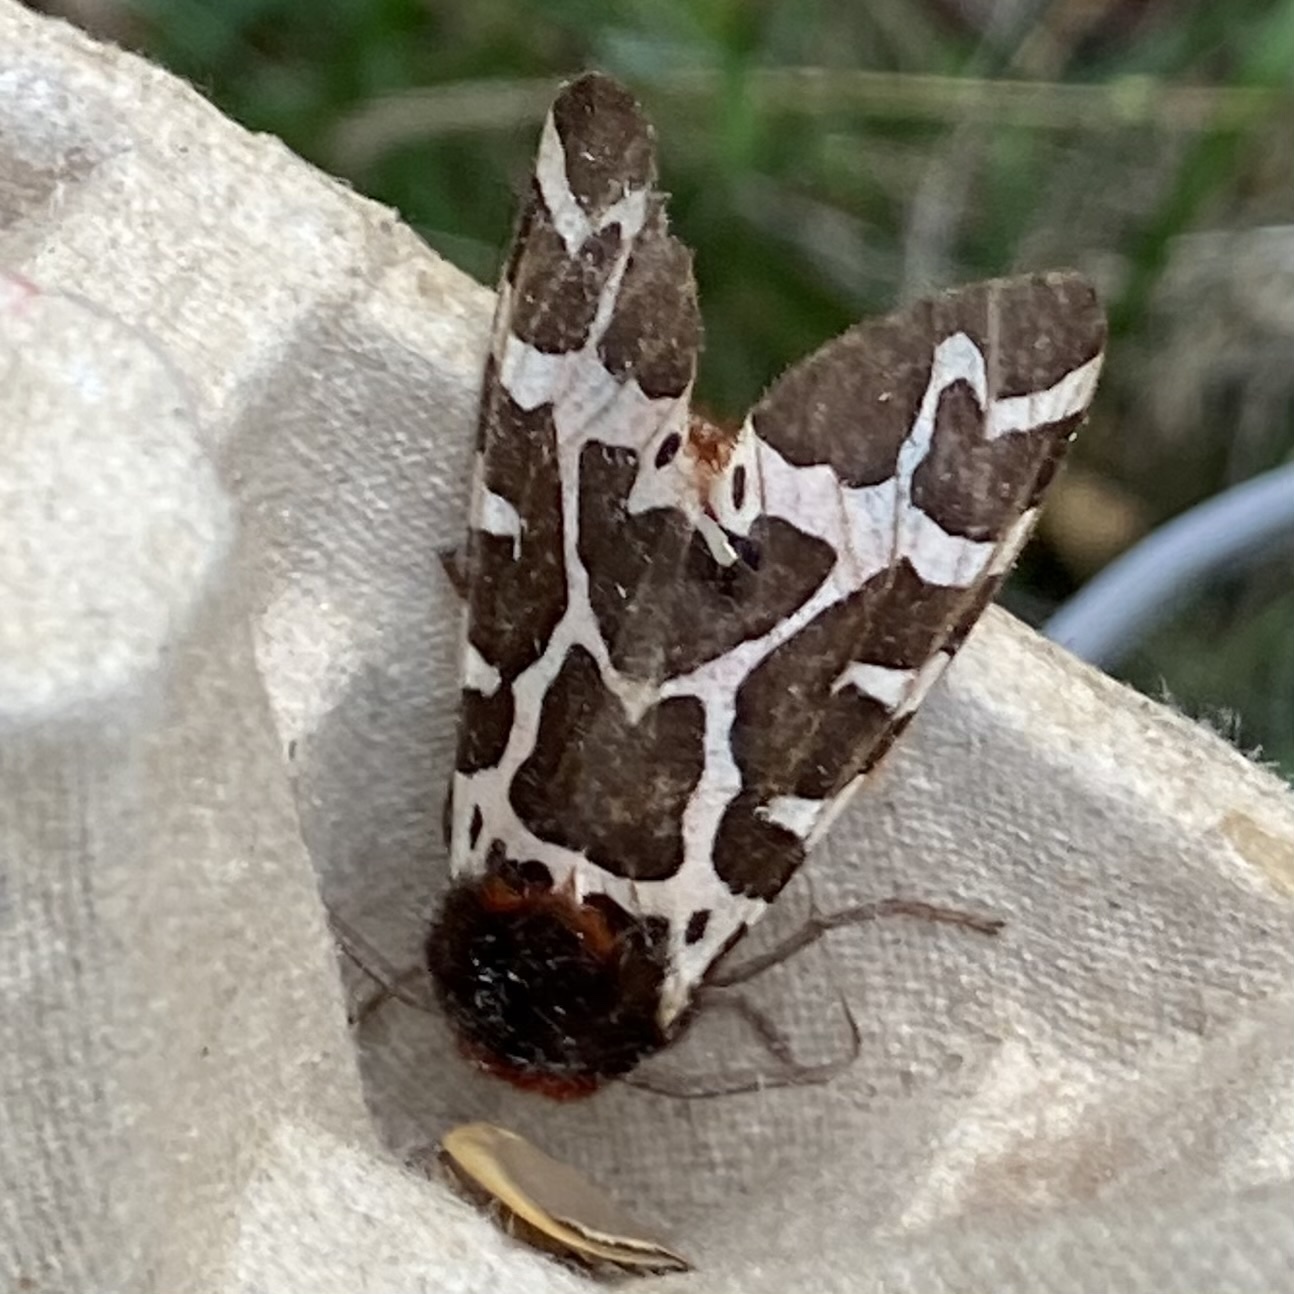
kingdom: Animalia
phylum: Arthropoda
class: Insecta
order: Lepidoptera
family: Erebidae
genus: Arctia
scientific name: Arctia caja
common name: Garden tiger
